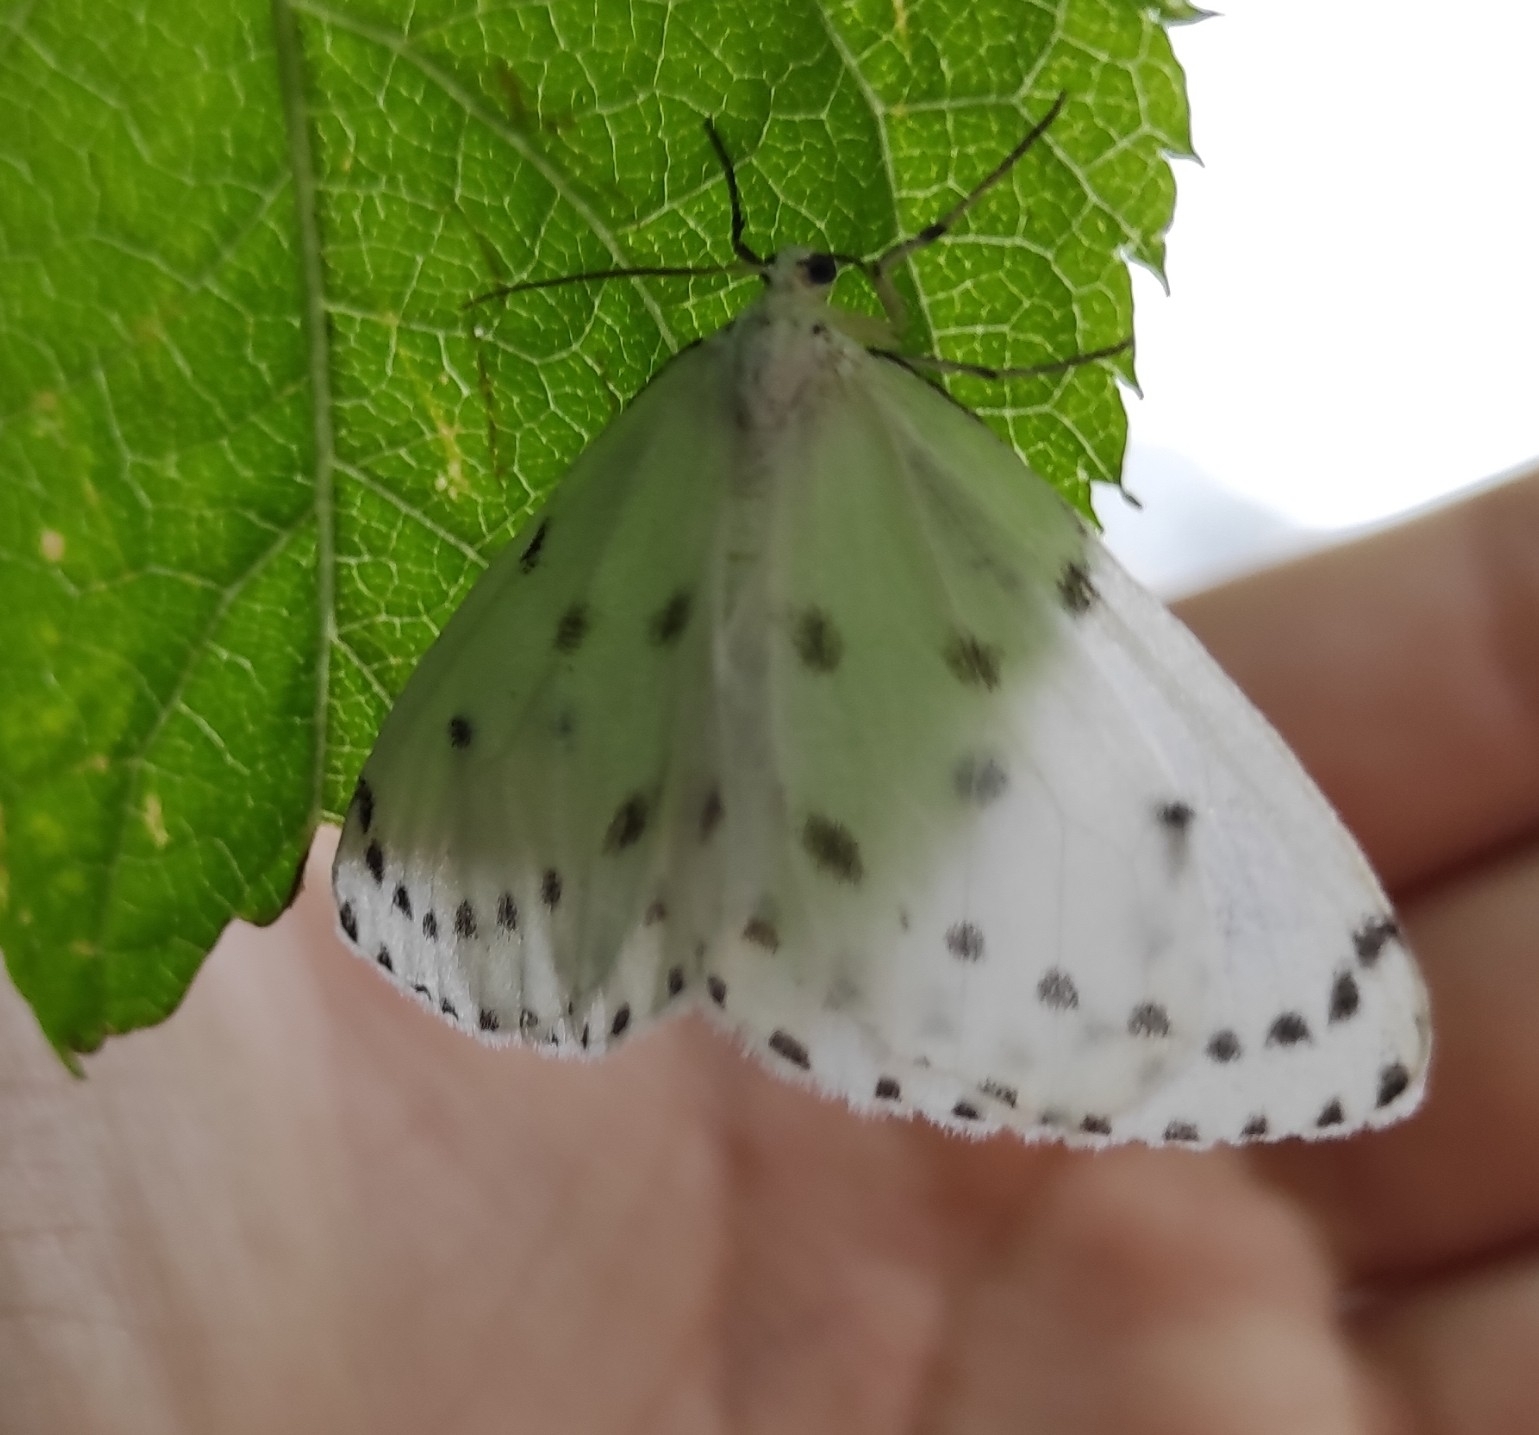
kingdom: Animalia
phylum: Arthropoda
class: Insecta
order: Lepidoptera
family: Geometridae
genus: Naxa
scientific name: Naxa seriaria
